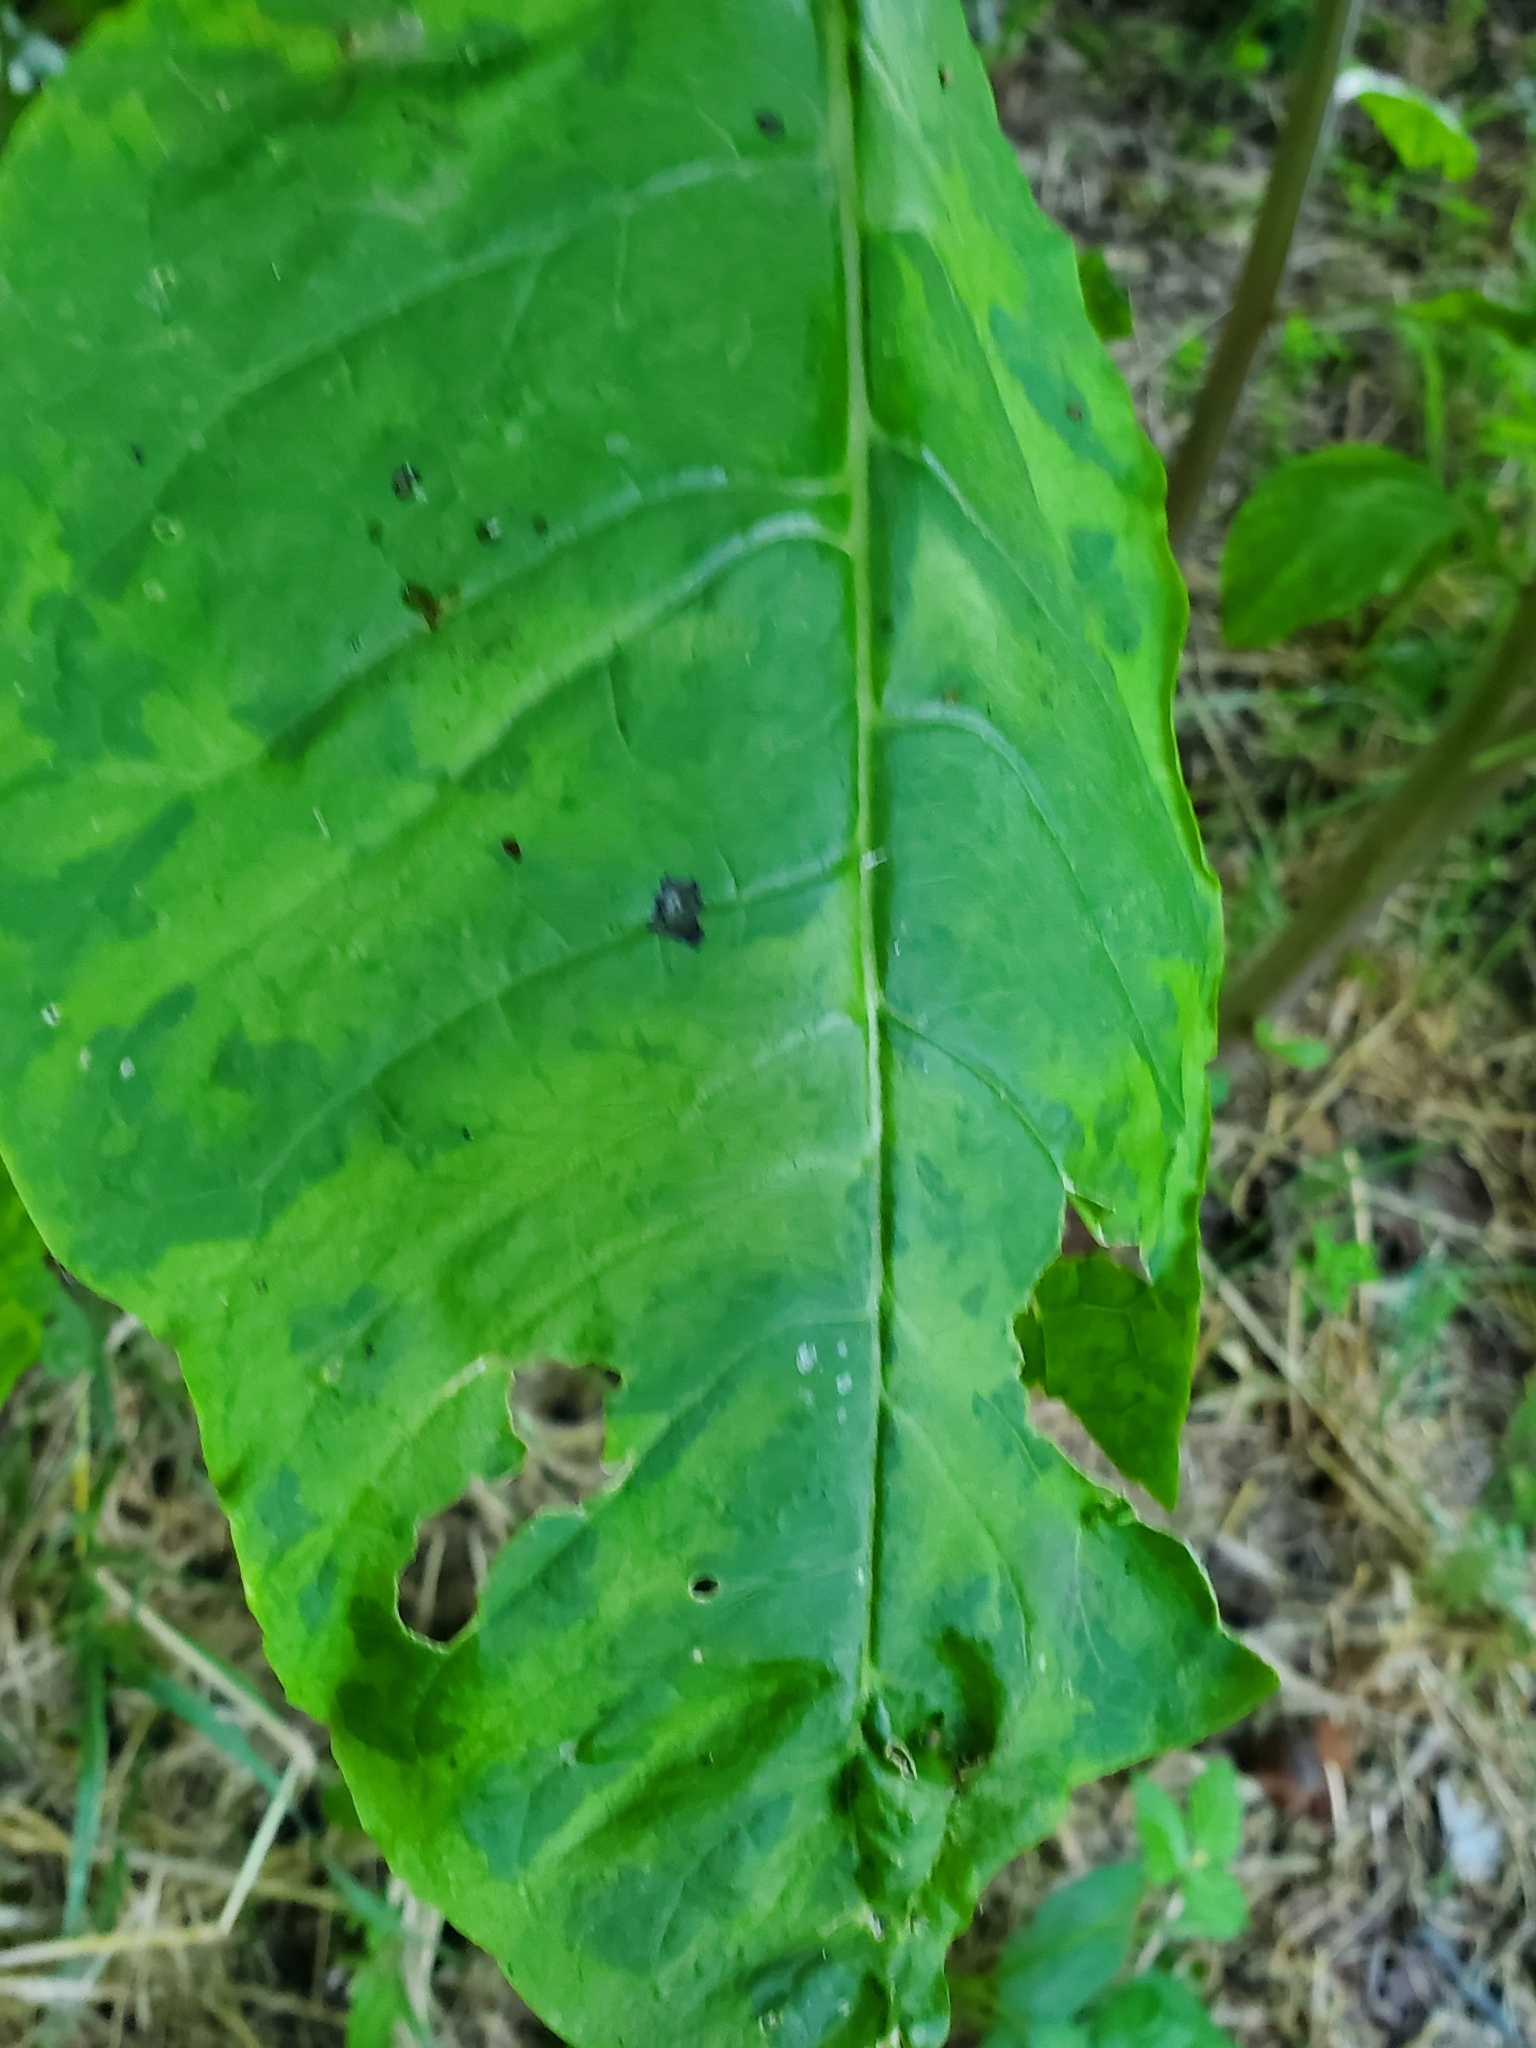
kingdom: Viruses
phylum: Pisuviricota
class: Stelpaviricetes
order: Patatavirales
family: Potyviridae
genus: Potyvirus
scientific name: Potyvirus Pokeweed mosaic virus
